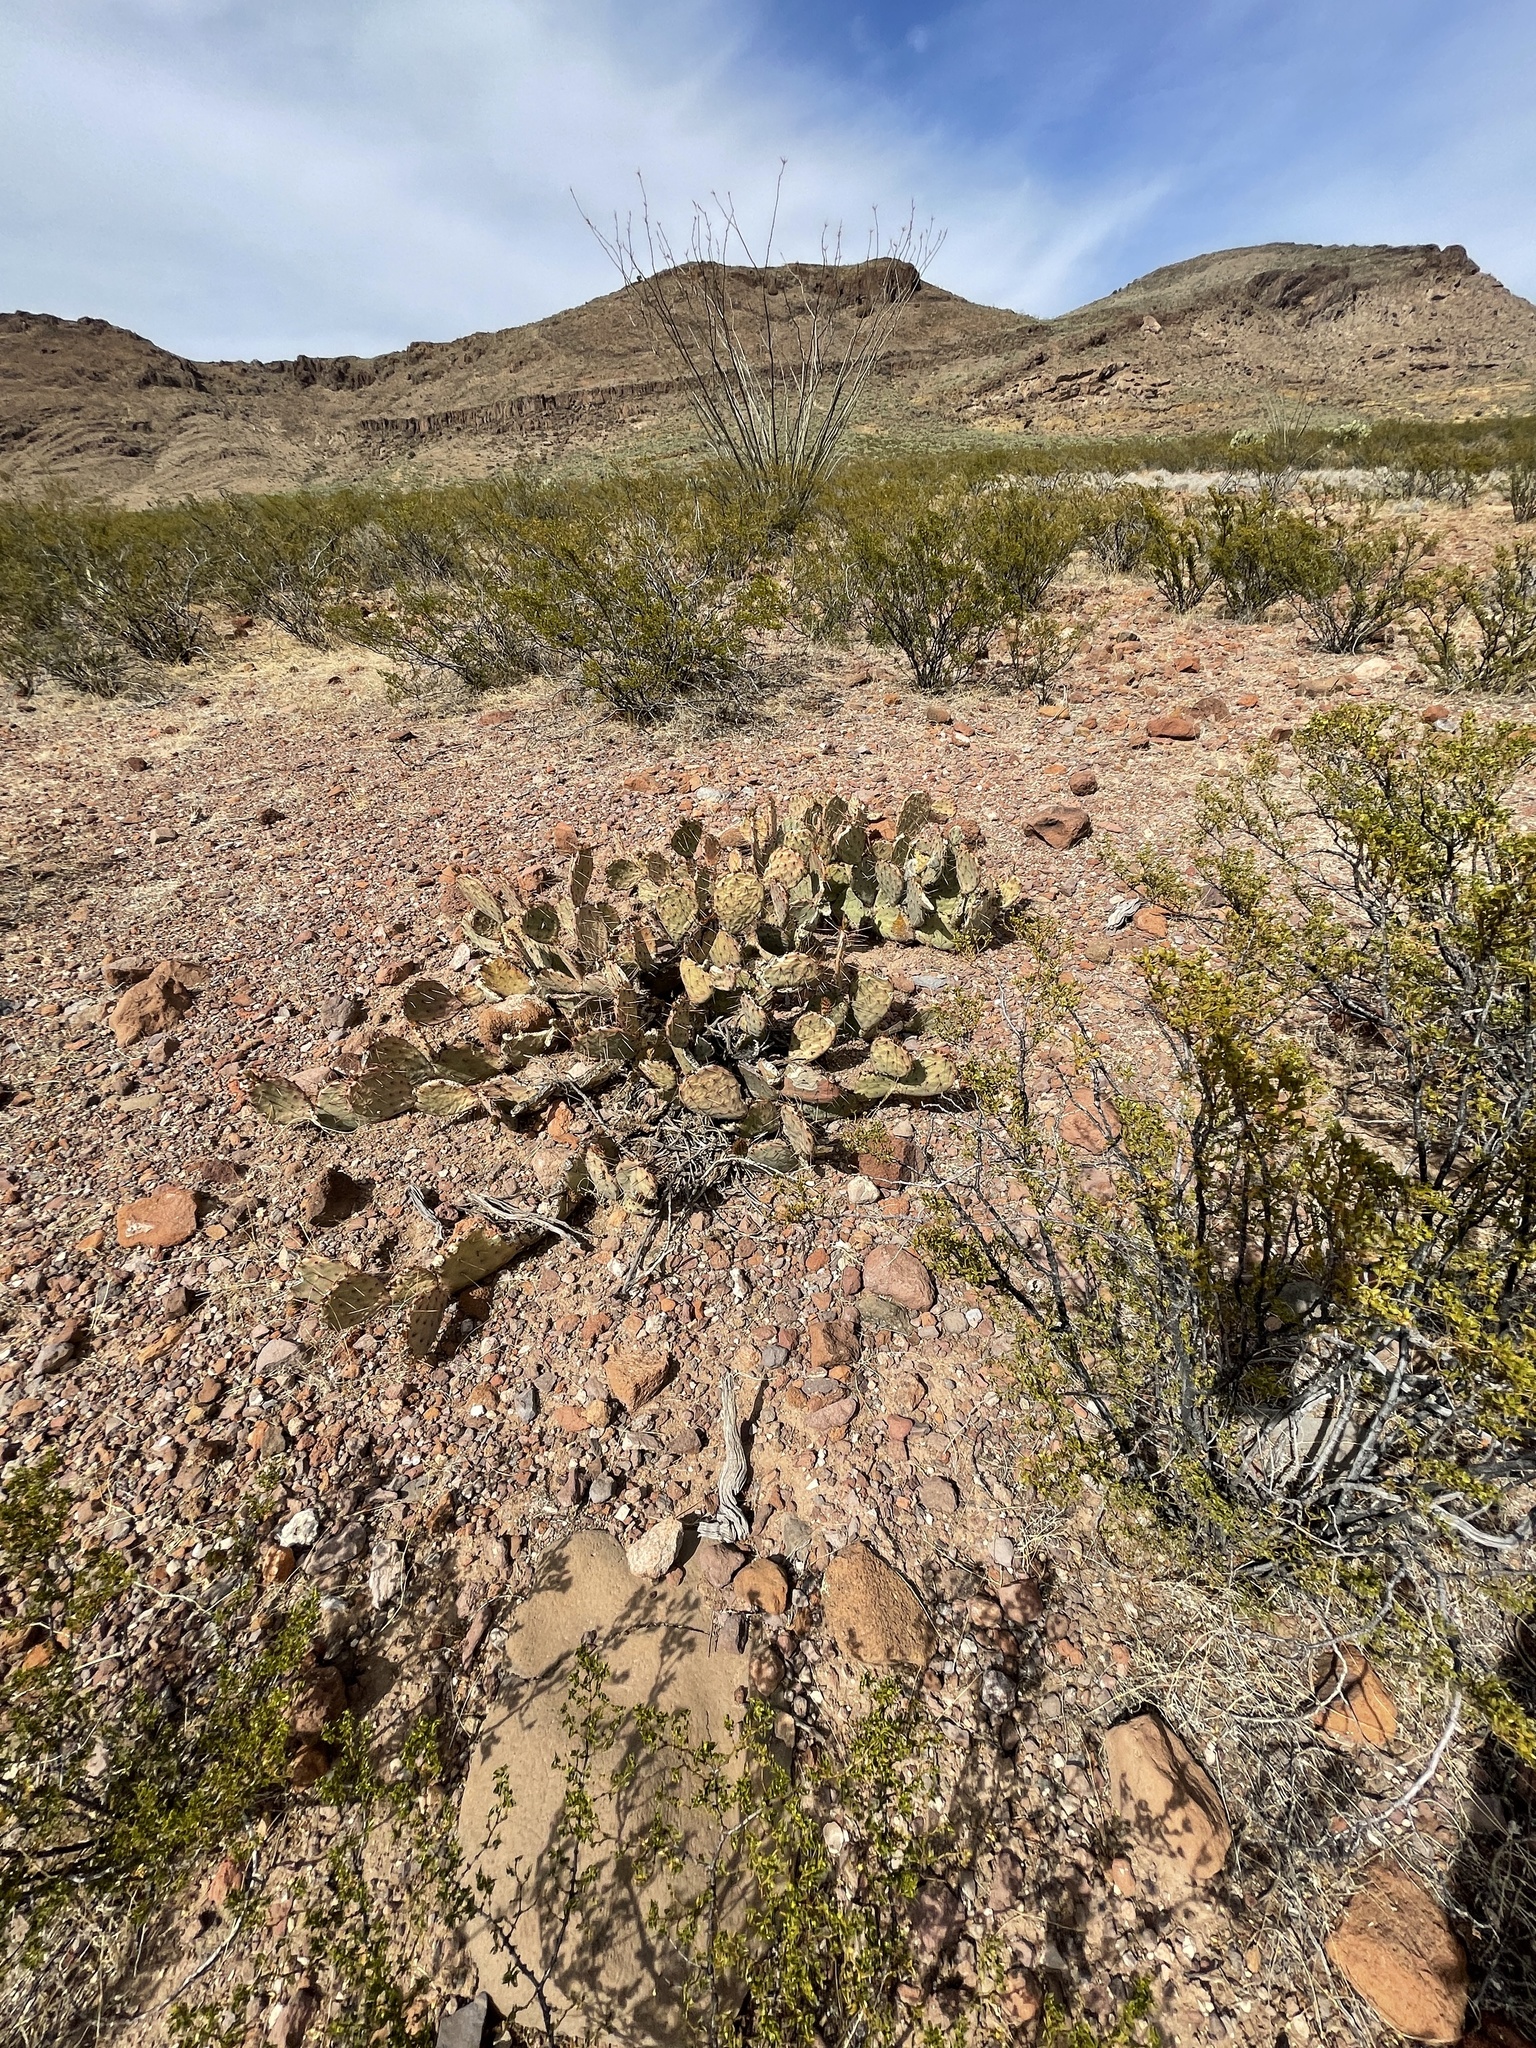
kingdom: Plantae
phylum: Tracheophyta
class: Magnoliopsida
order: Caryophyllales
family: Cactaceae
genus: Opuntia
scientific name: Opuntia phaeacantha
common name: New mexico prickly-pear
